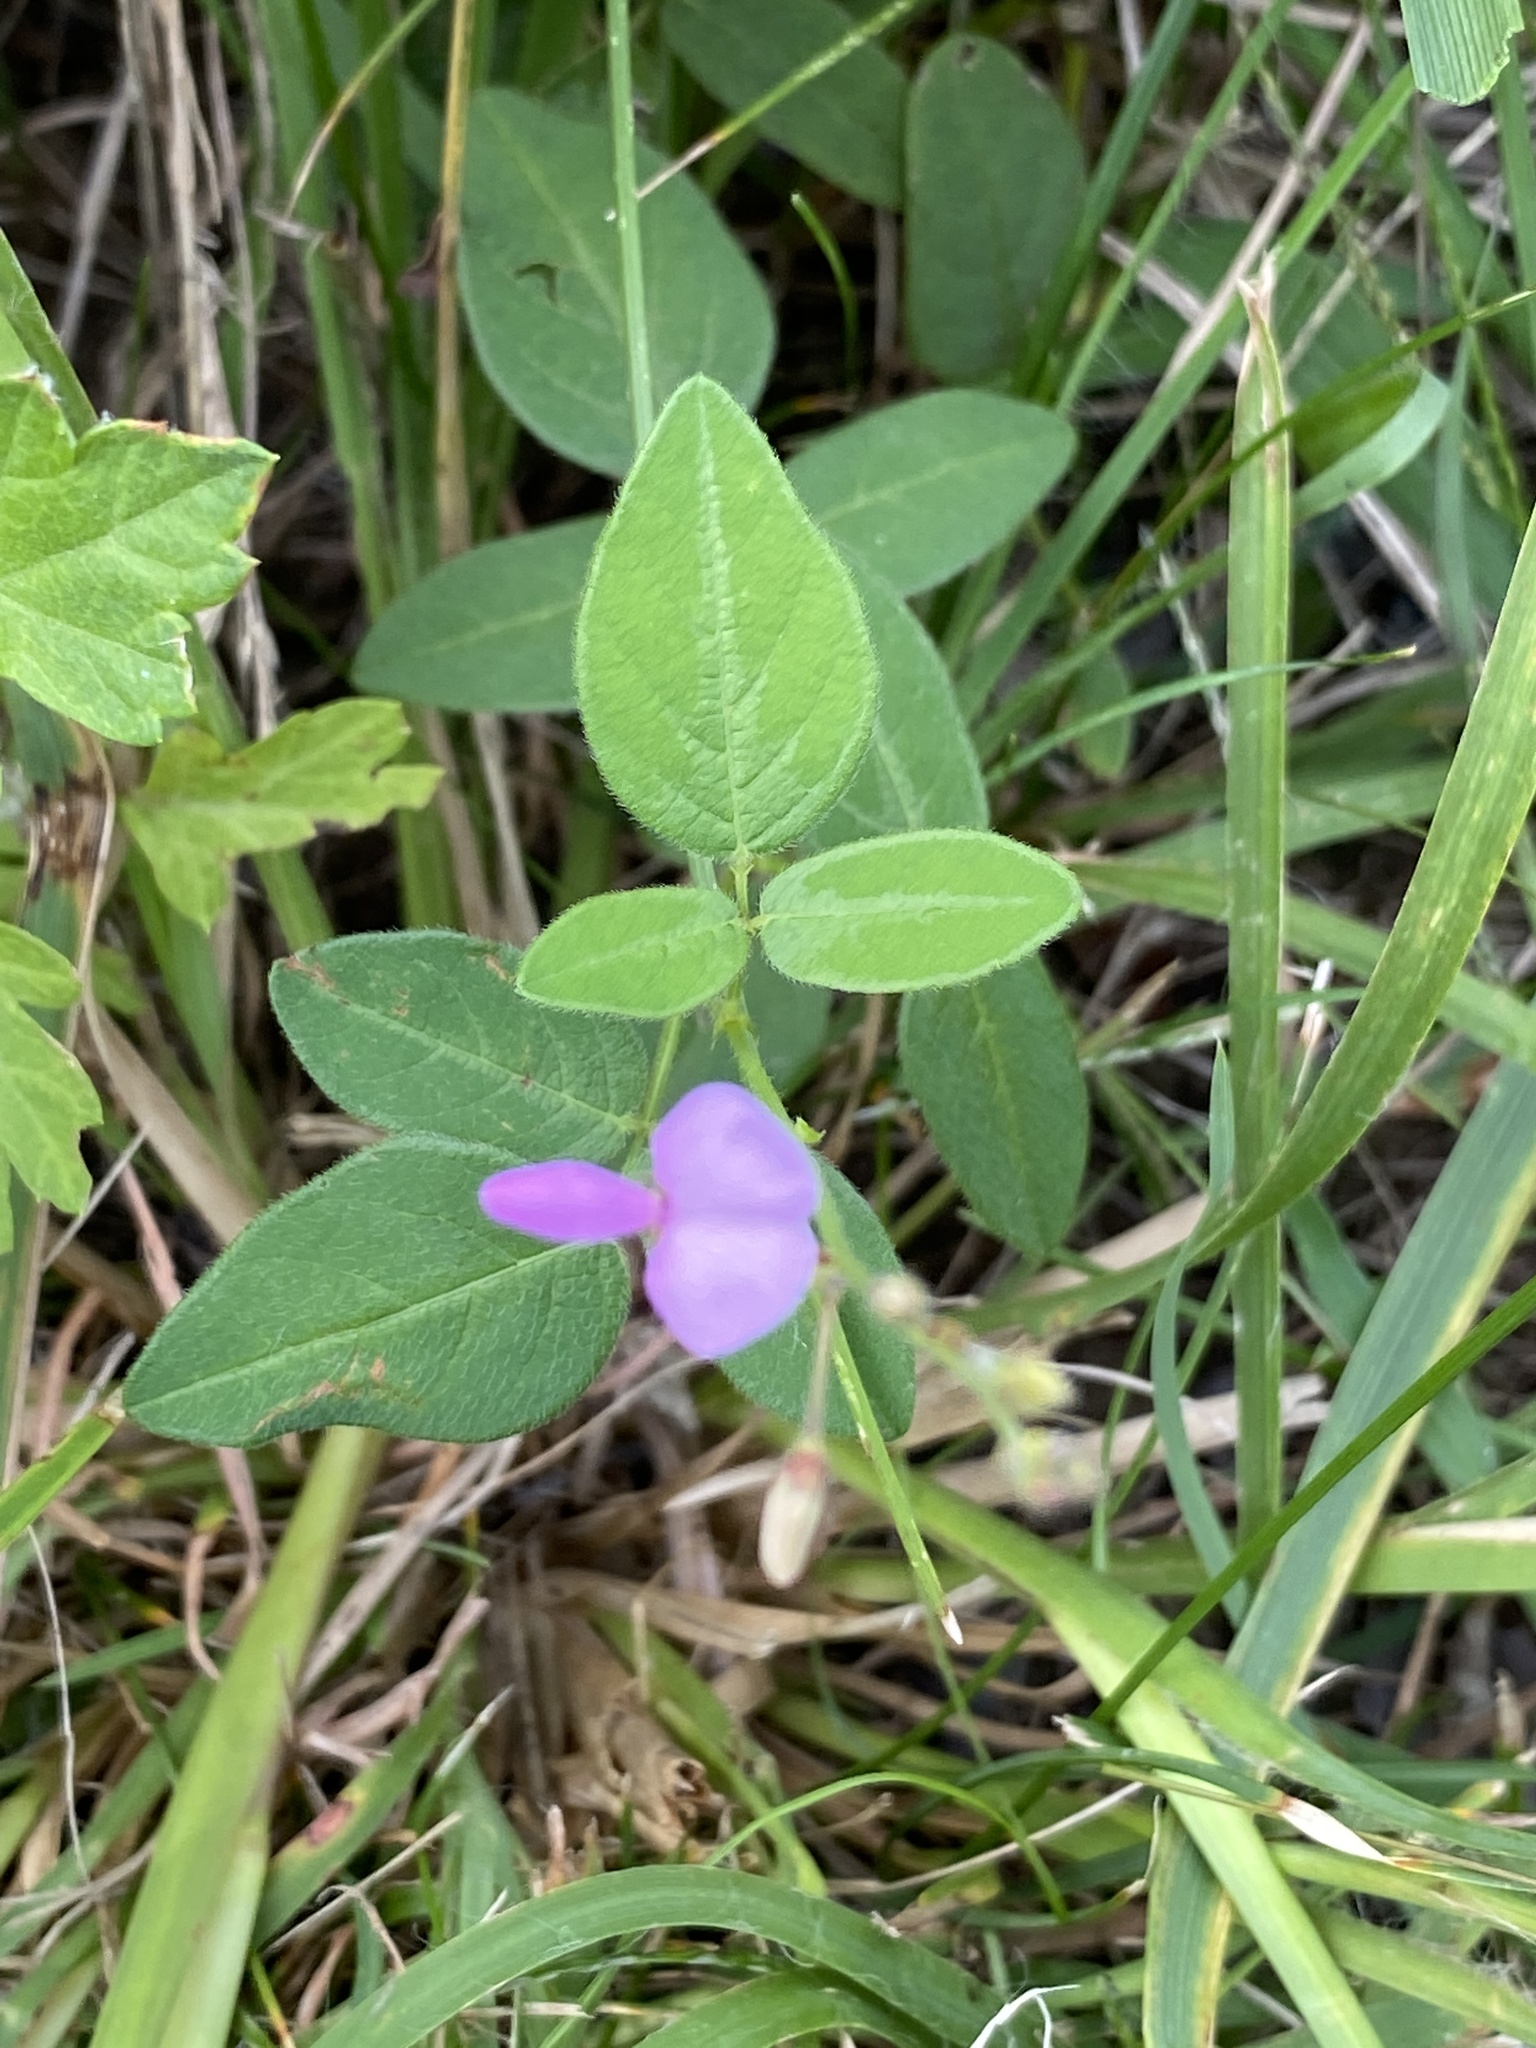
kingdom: Plantae
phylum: Tracheophyta
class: Magnoliopsida
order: Fabales
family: Fabaceae
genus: Desmodium
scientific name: Desmodium canadense
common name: Canada tick-trefoil
